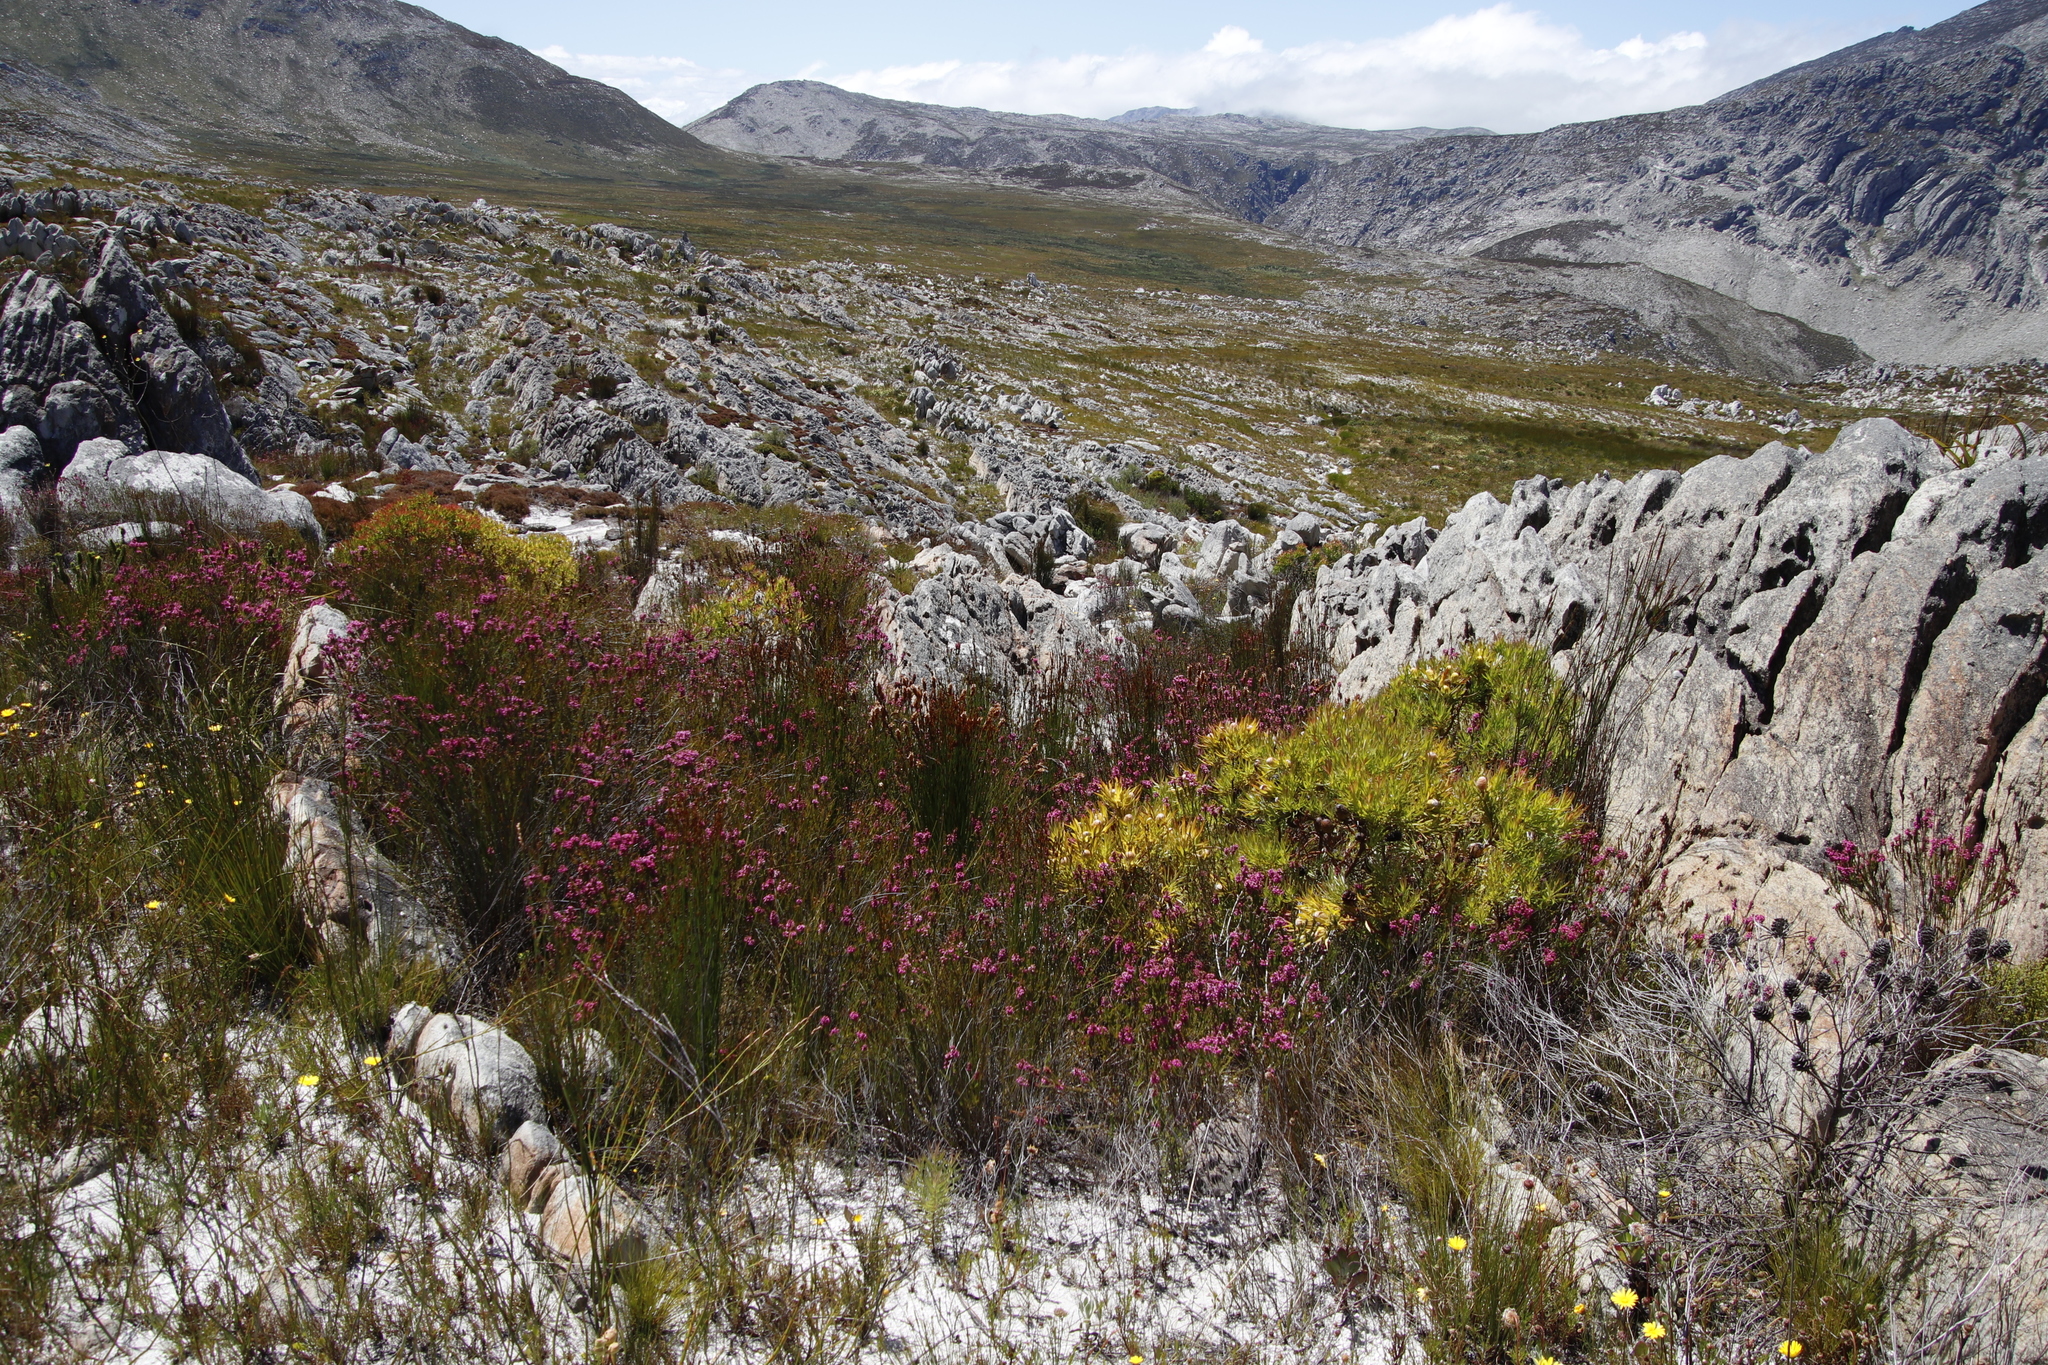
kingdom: Plantae
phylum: Tracheophyta
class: Magnoliopsida
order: Proteales
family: Proteaceae
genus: Leucadendron
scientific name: Leucadendron xanthoconus
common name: Sickle-leaf conebush
